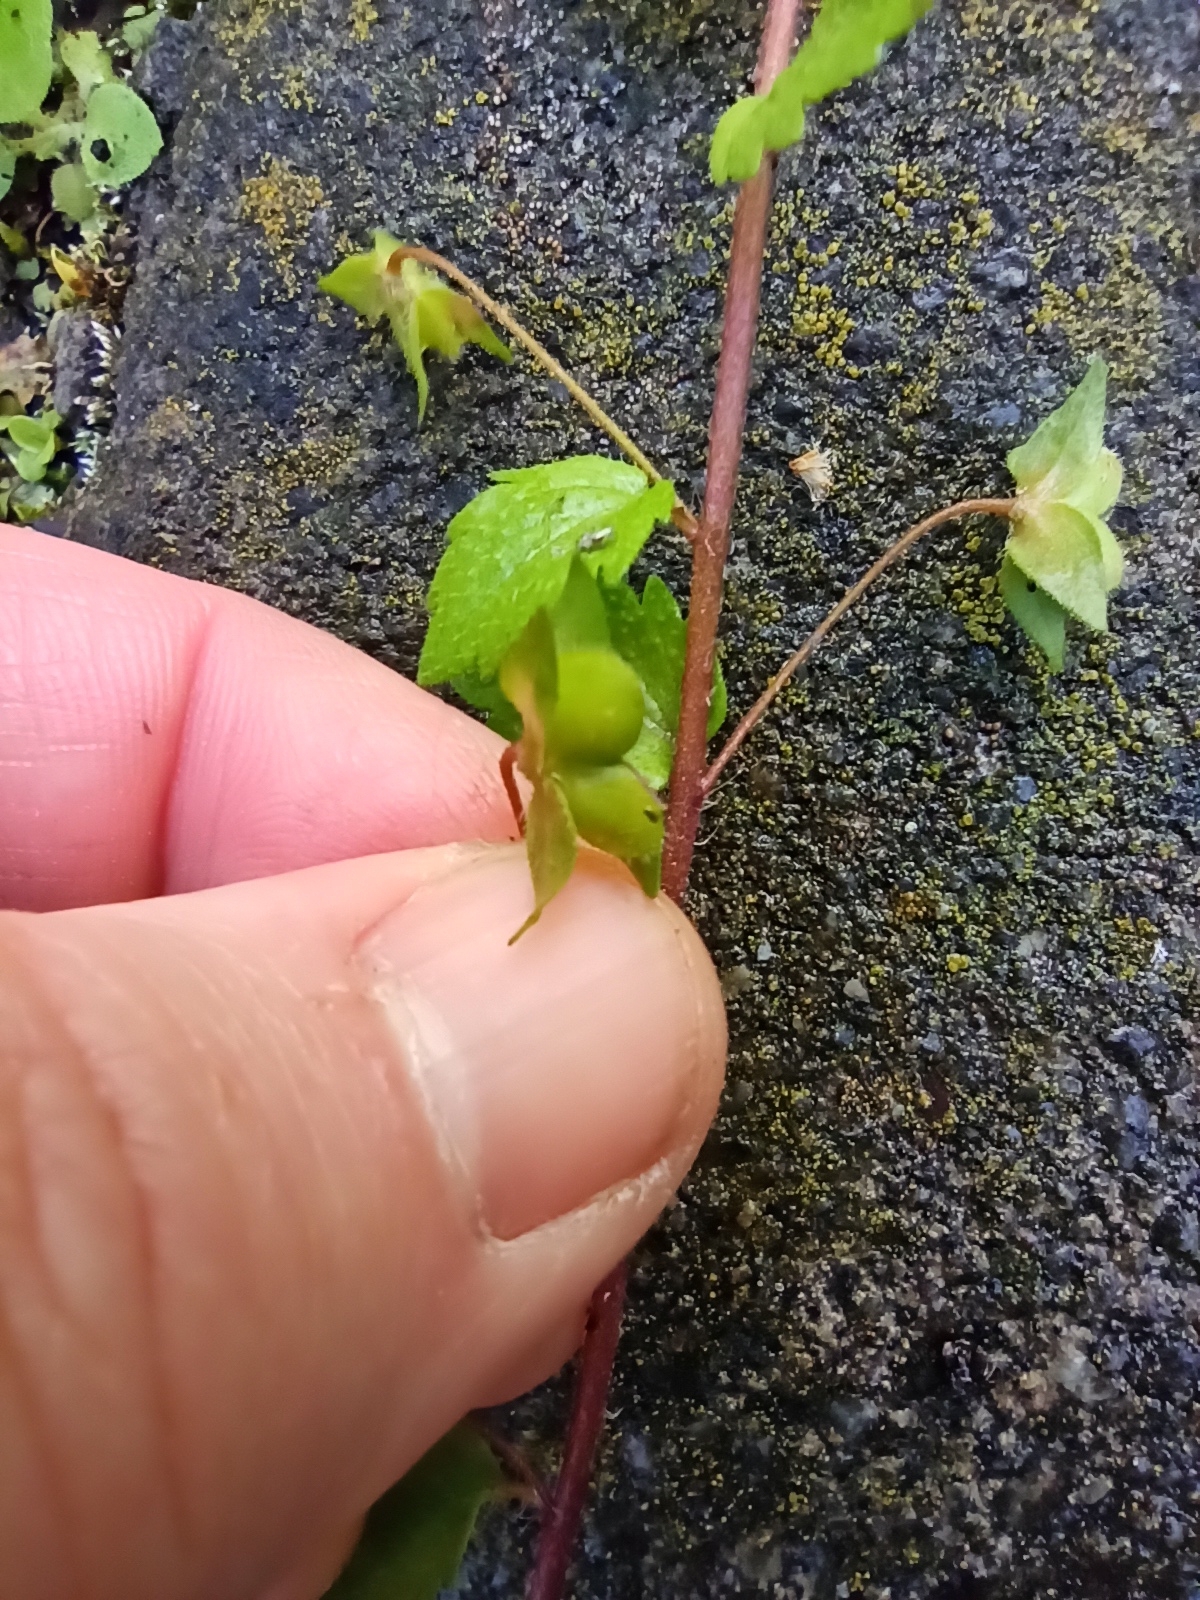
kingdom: Plantae
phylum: Tracheophyta
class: Magnoliopsida
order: Lamiales
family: Plantaginaceae
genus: Veronica
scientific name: Veronica persica
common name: Common field-speedwell
